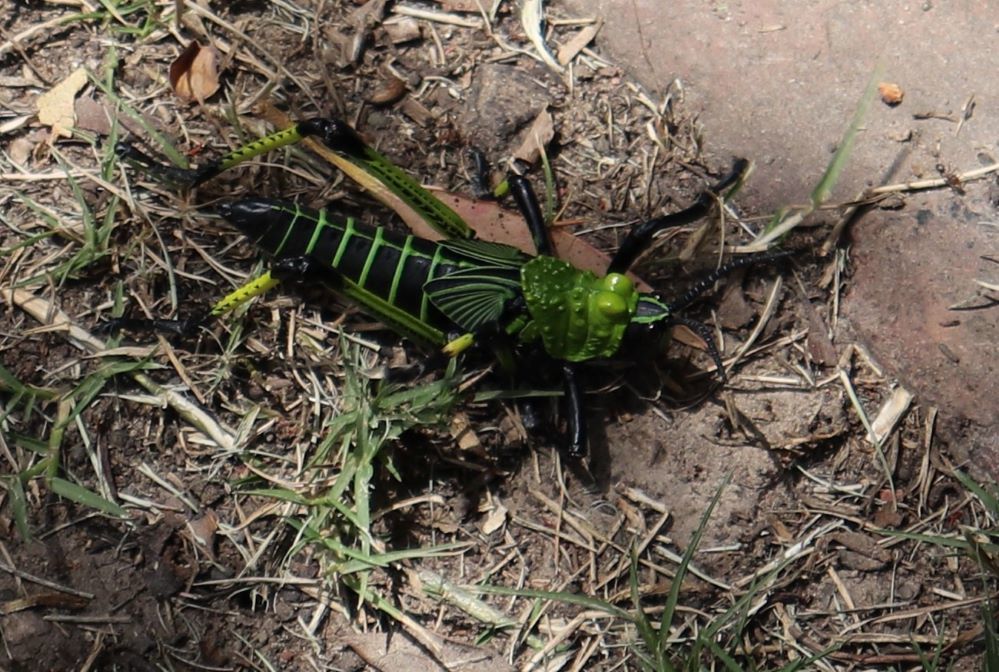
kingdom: Animalia
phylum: Arthropoda
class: Insecta
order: Orthoptera
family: Pyrgomorphidae
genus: Phymateus
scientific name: Phymateus leprosus
